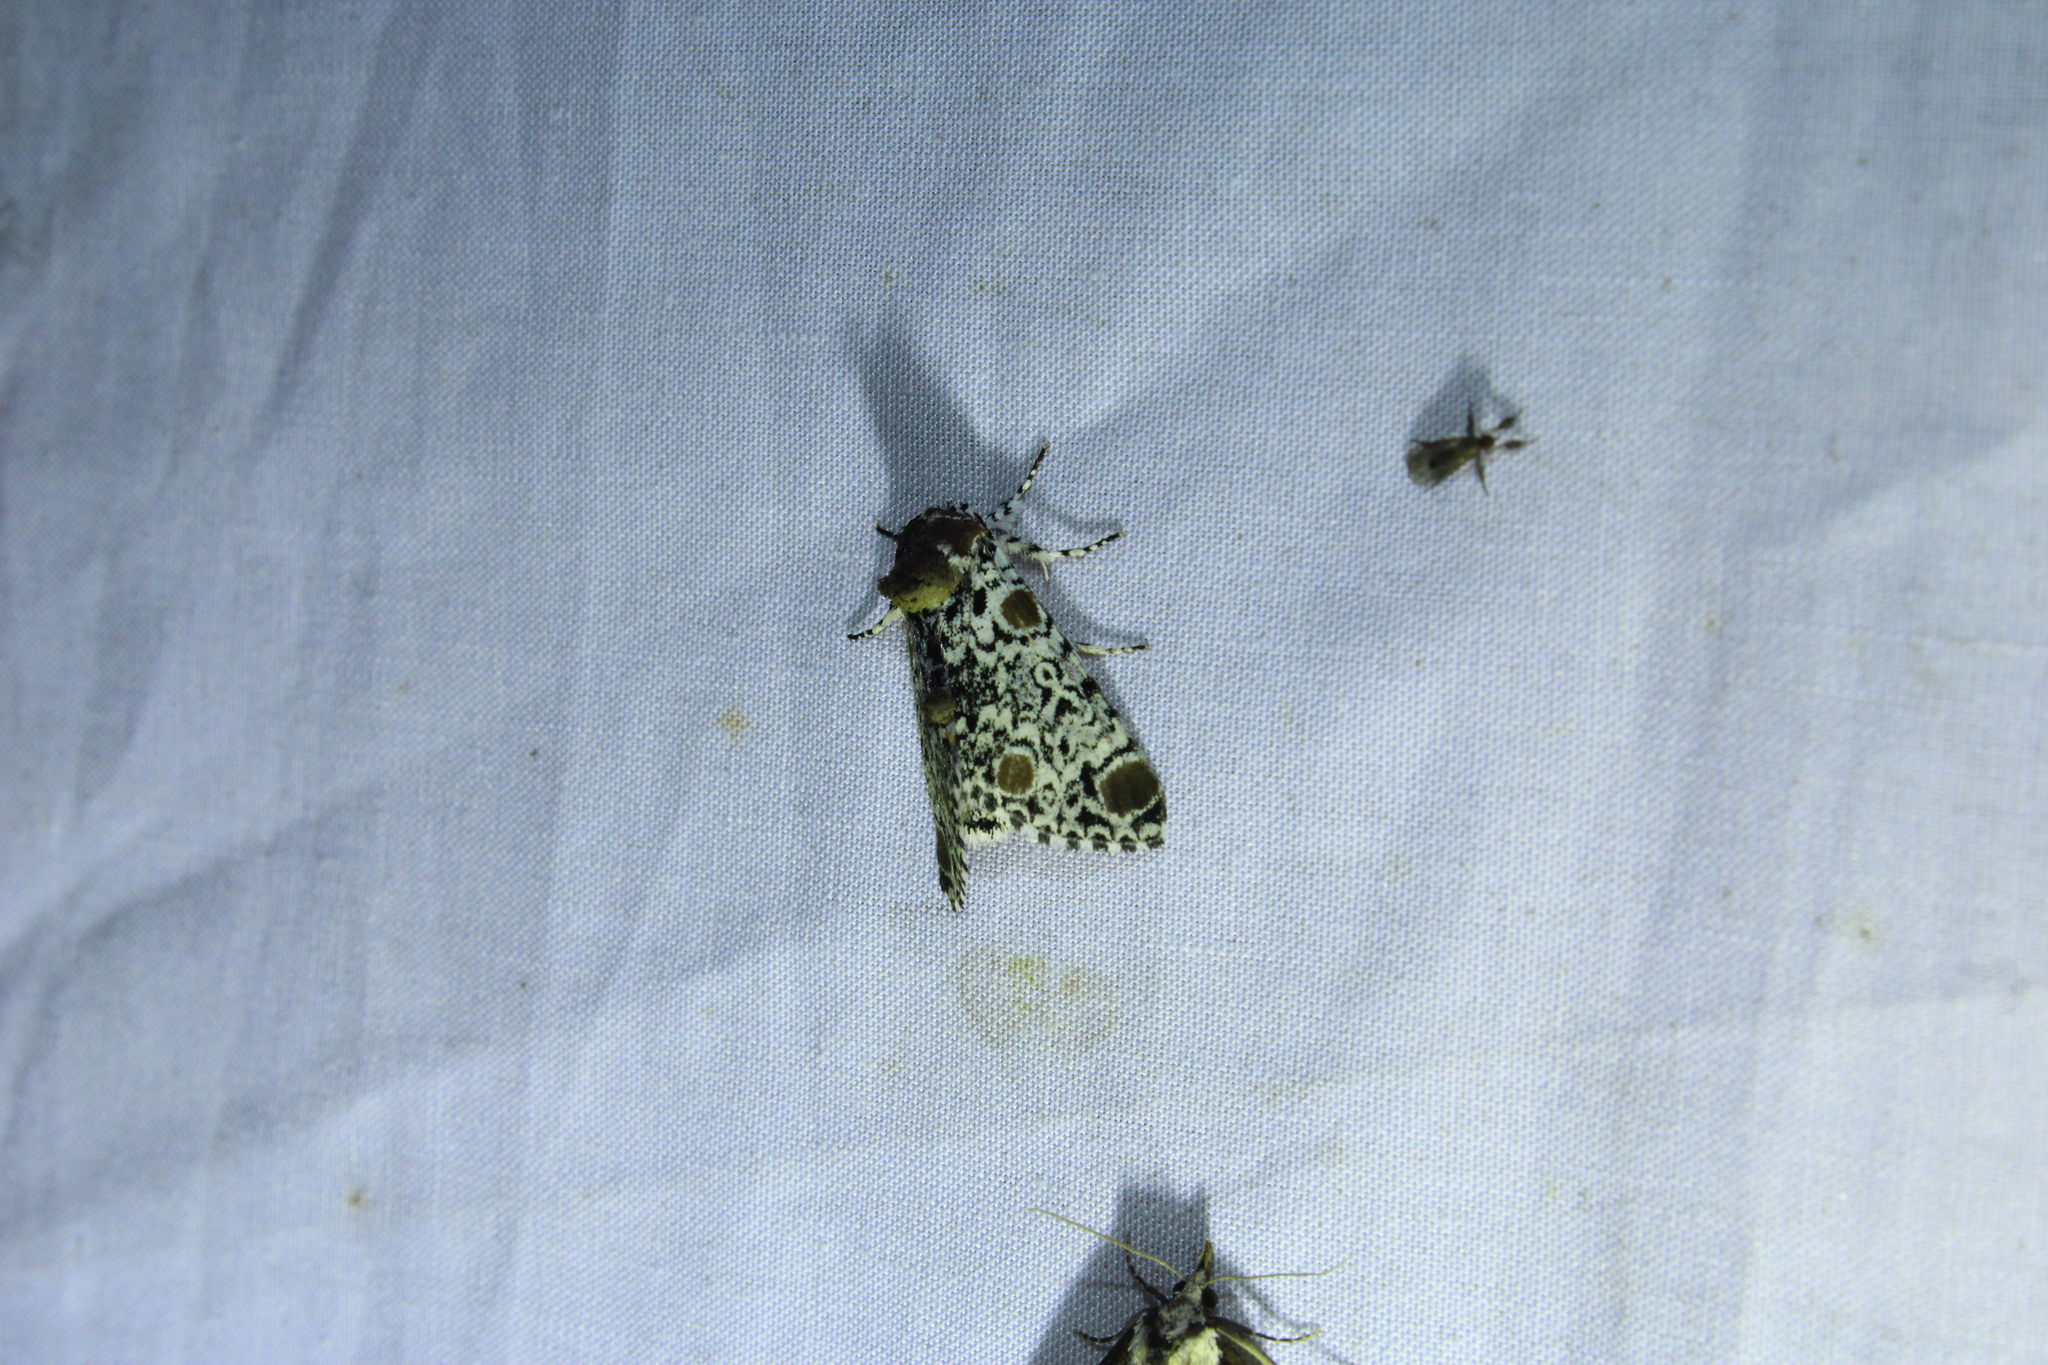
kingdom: Animalia
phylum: Arthropoda
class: Insecta
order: Lepidoptera
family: Noctuidae
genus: Harrisimemna
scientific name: Harrisimemna trisignata
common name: Harris threespot
